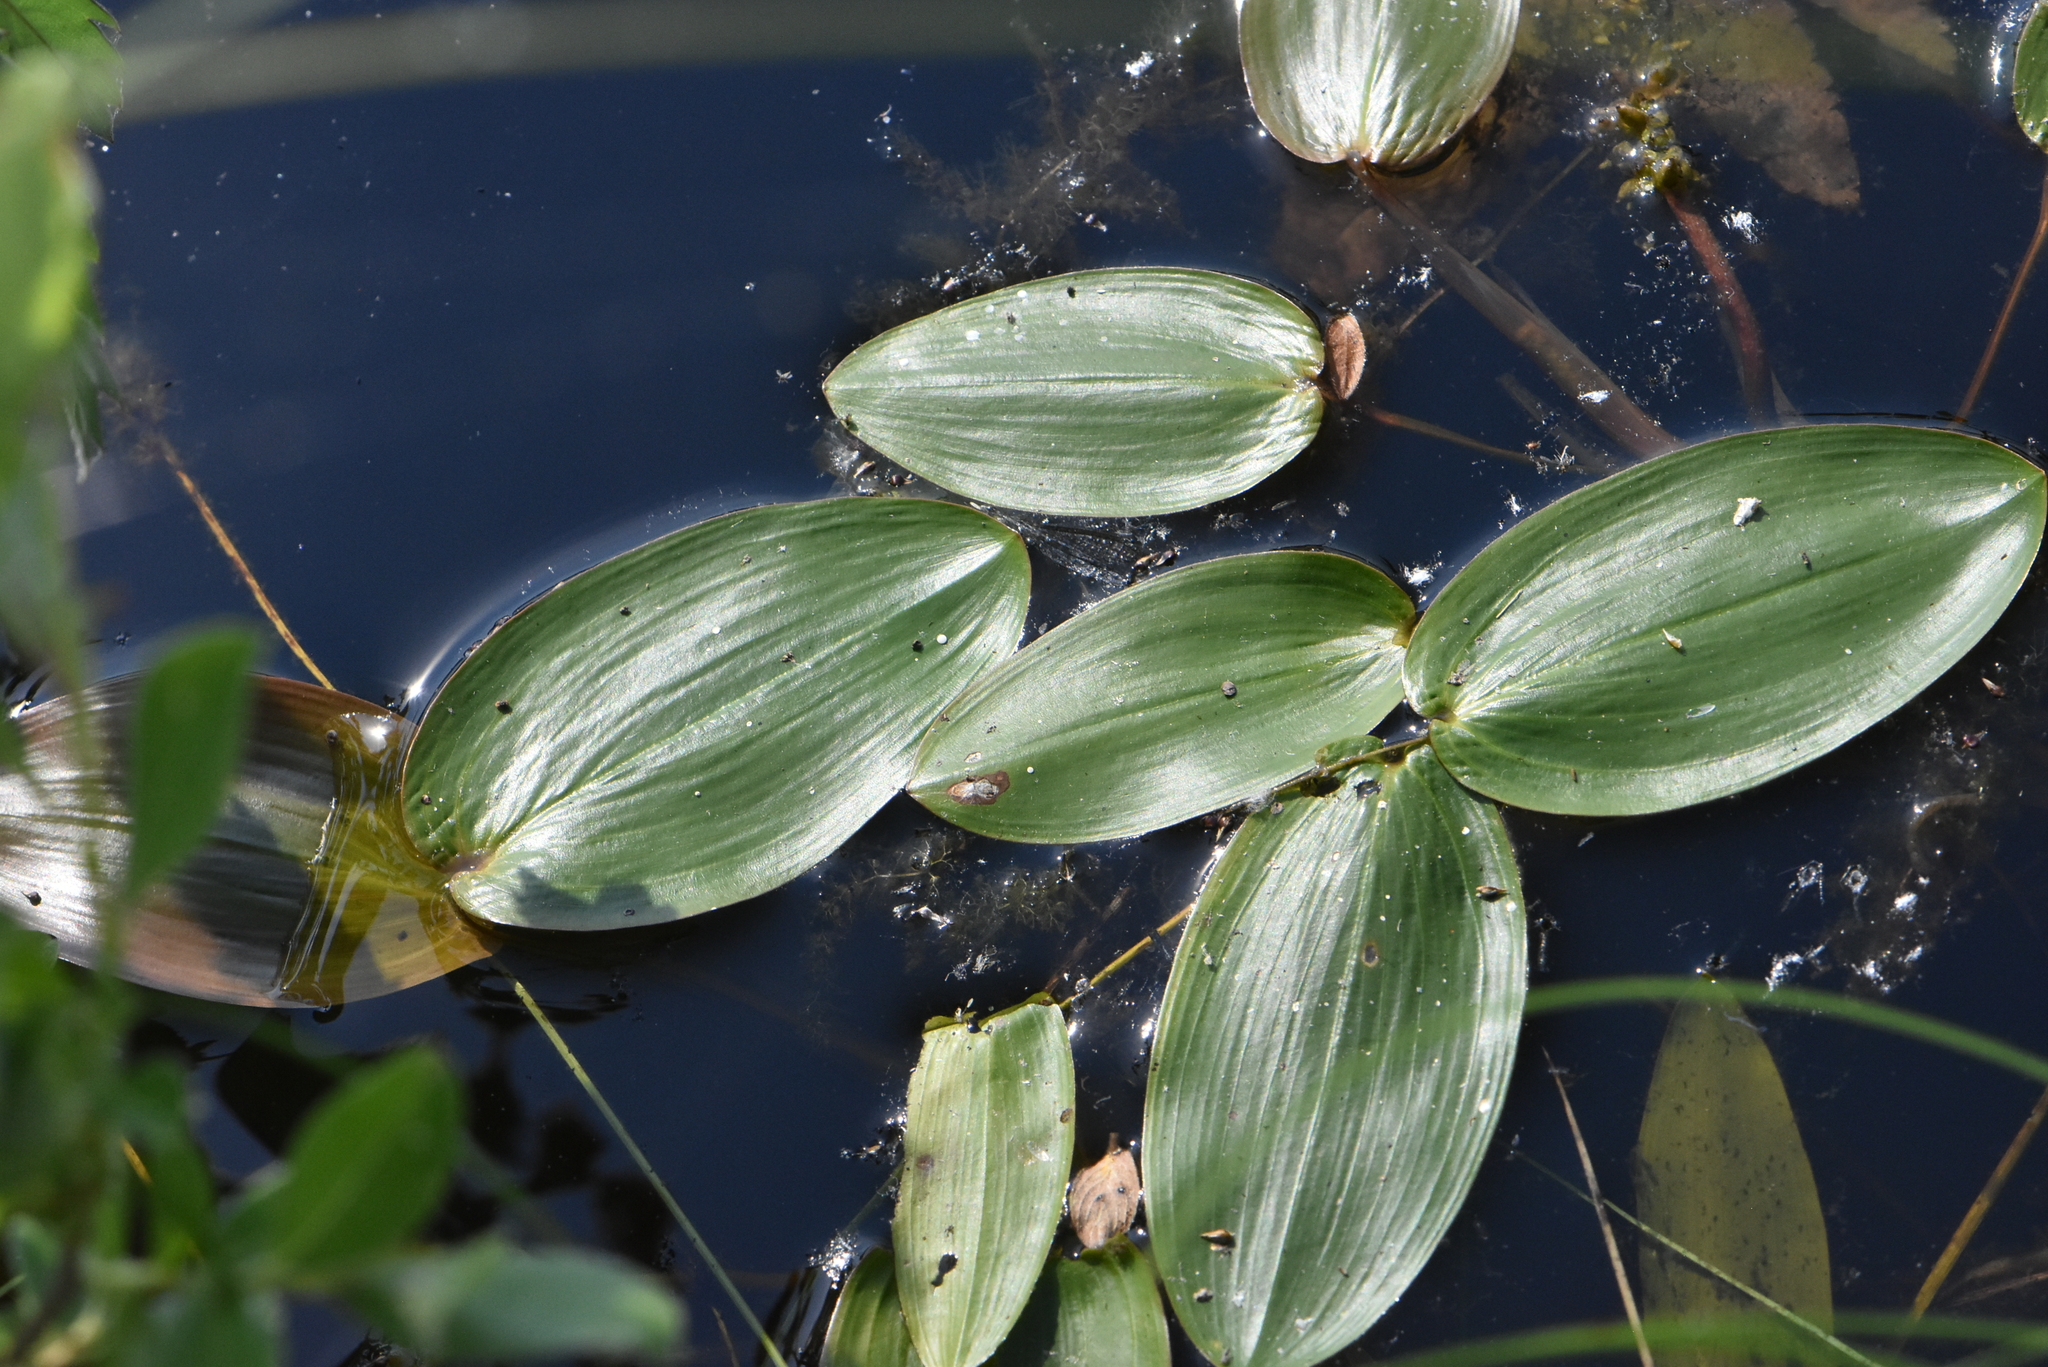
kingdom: Plantae
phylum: Tracheophyta
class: Liliopsida
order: Alismatales
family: Potamogetonaceae
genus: Potamogeton
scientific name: Potamogeton natans
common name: Broad-leaved pondweed
